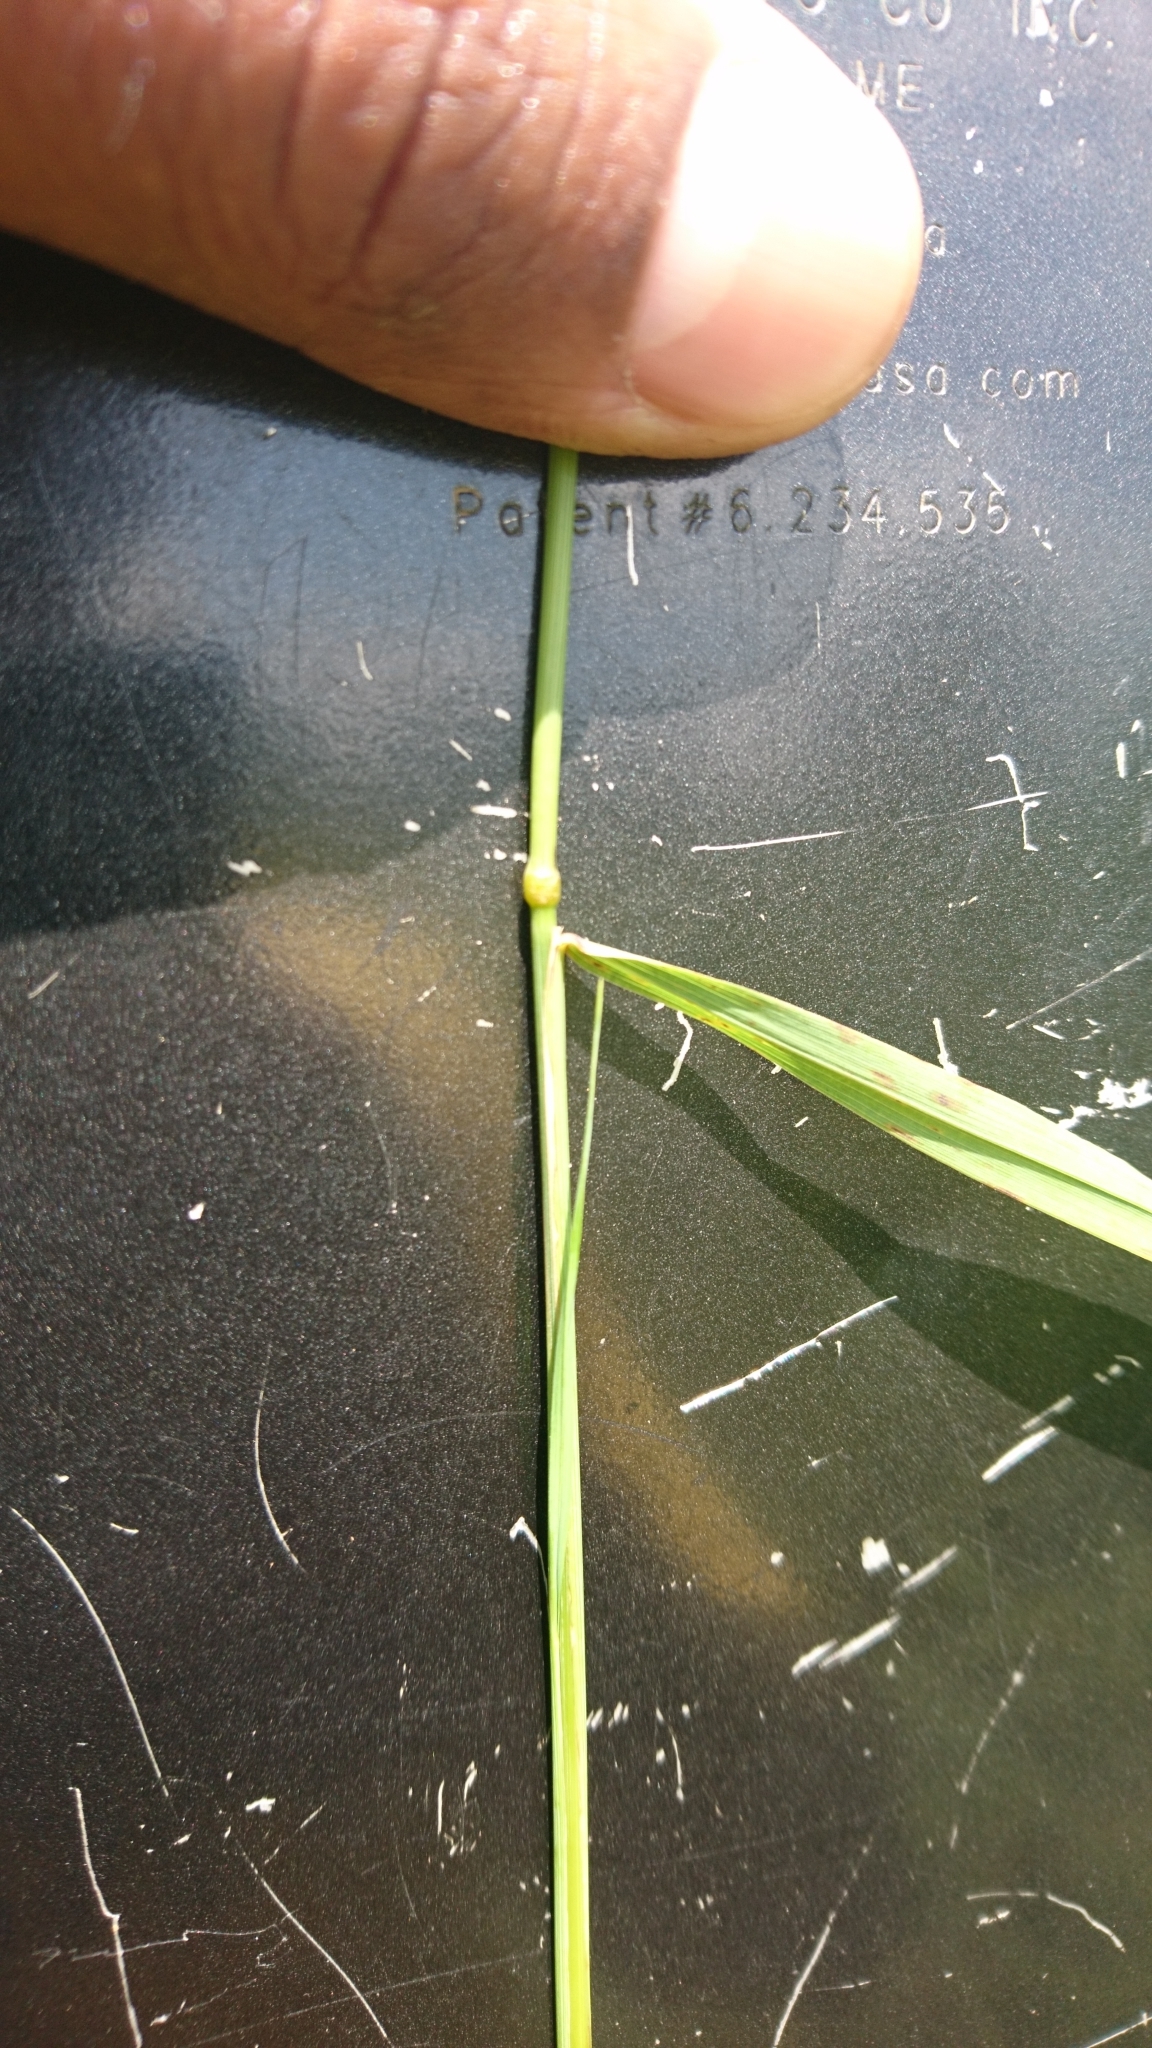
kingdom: Plantae
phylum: Tracheophyta
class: Liliopsida
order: Poales
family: Poaceae
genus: Calamagrostis
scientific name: Calamagrostis canadensis
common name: Canada bluejoint
